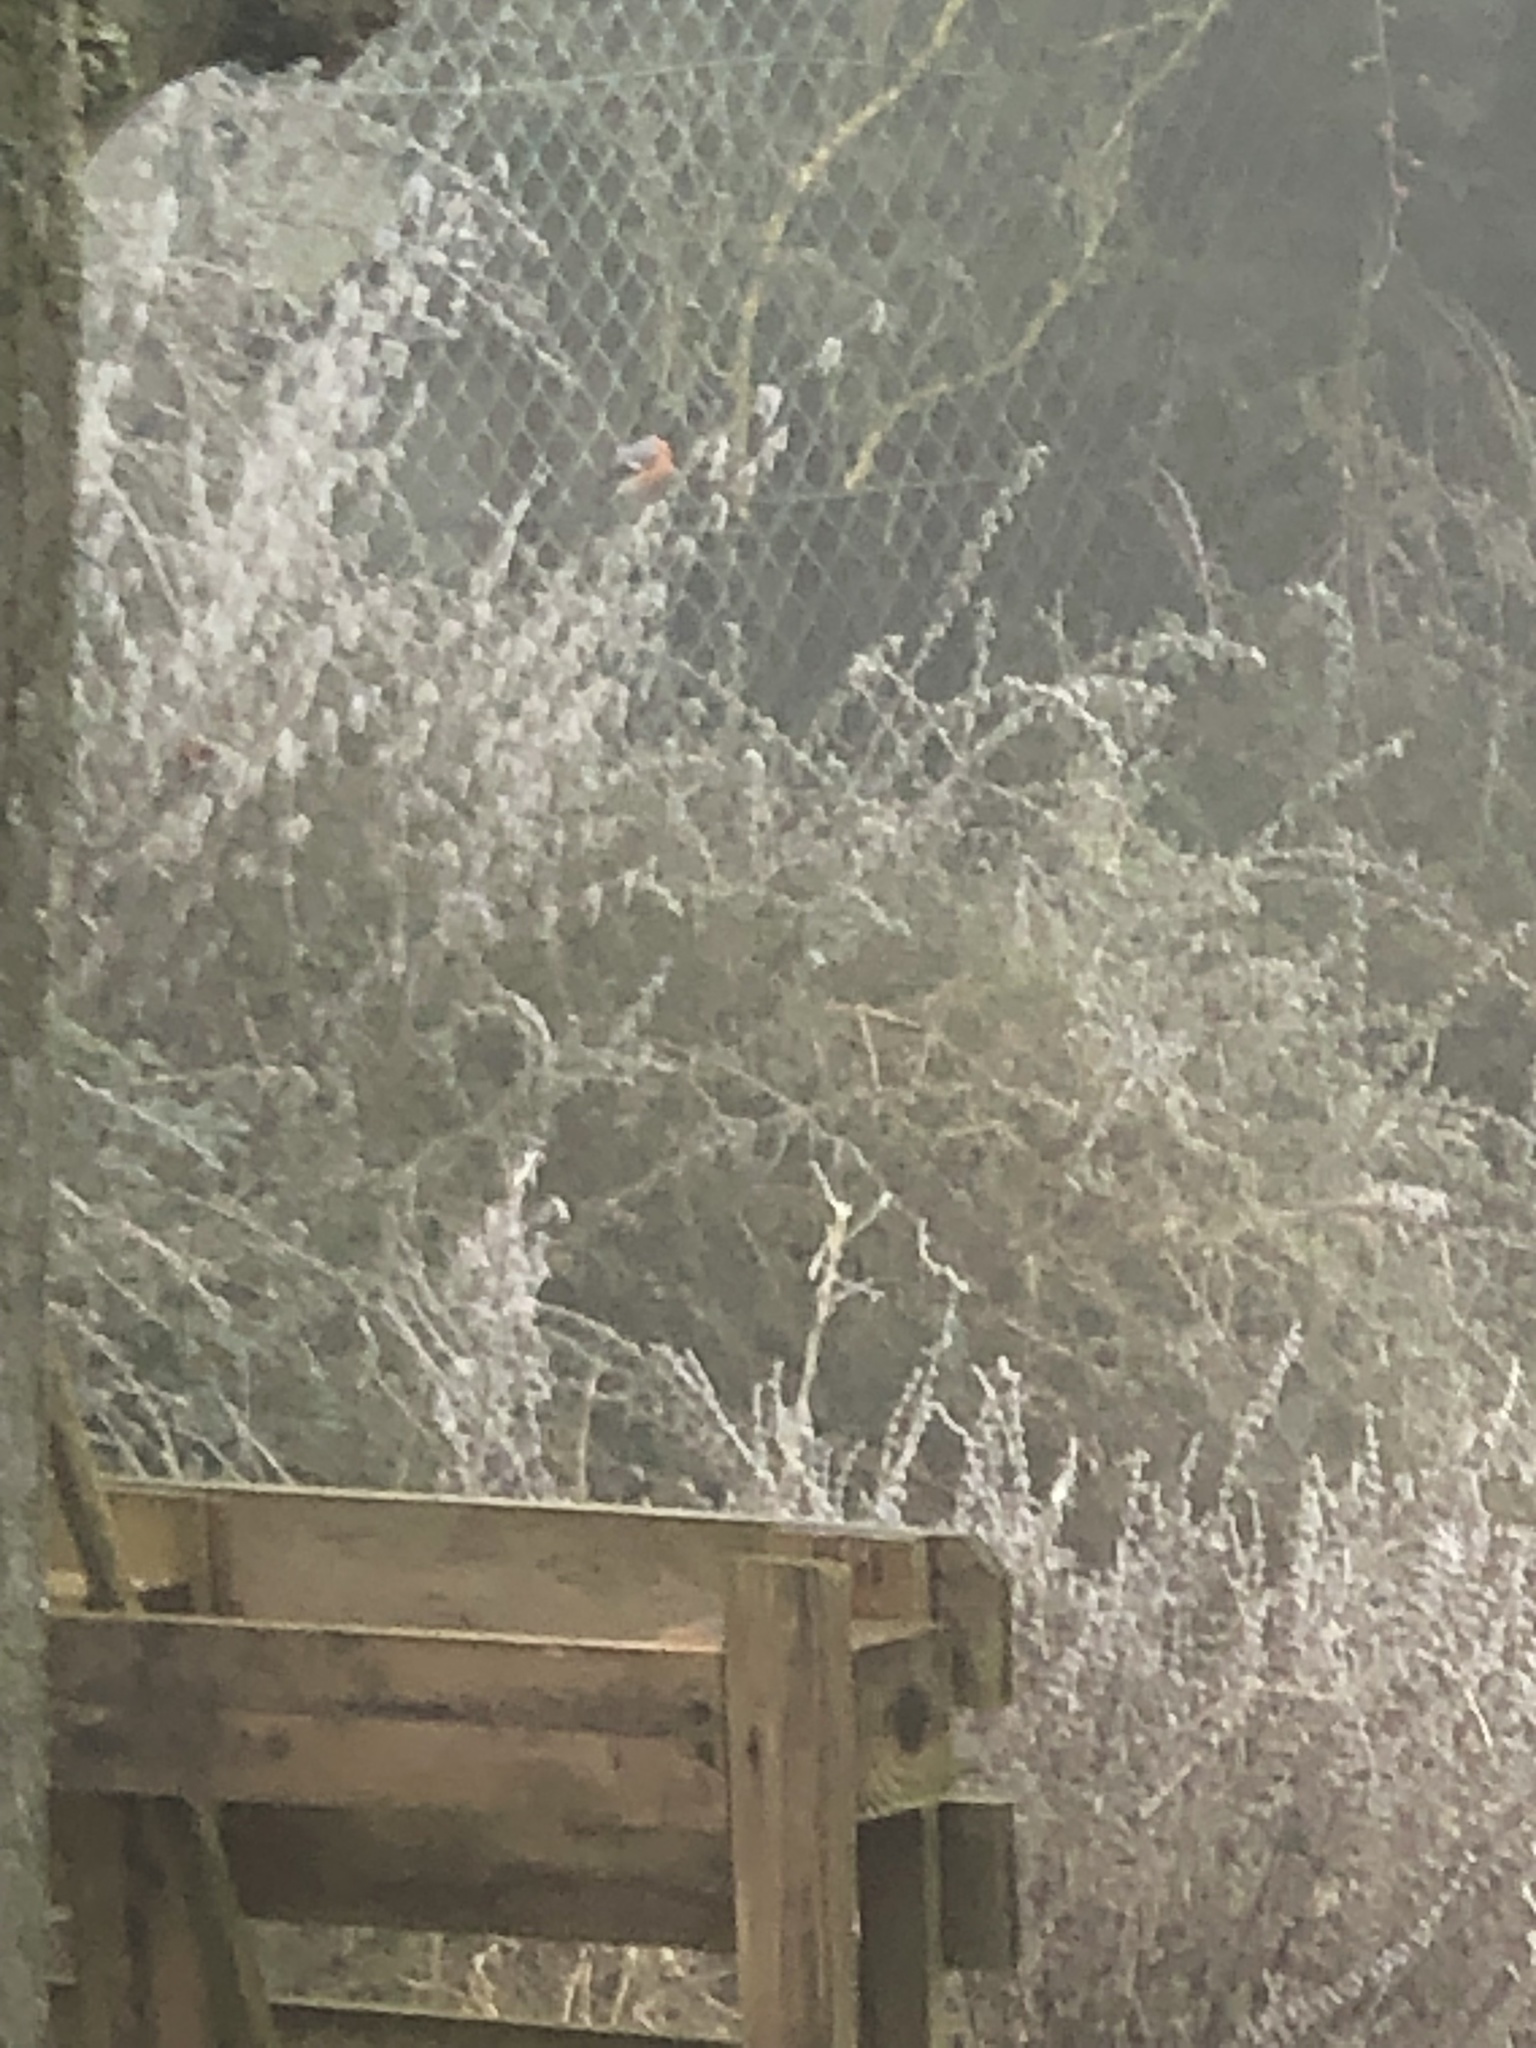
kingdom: Animalia
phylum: Chordata
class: Aves
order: Passeriformes
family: Fringillidae
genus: Pyrrhula
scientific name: Pyrrhula pyrrhula
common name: Eurasian bullfinch
